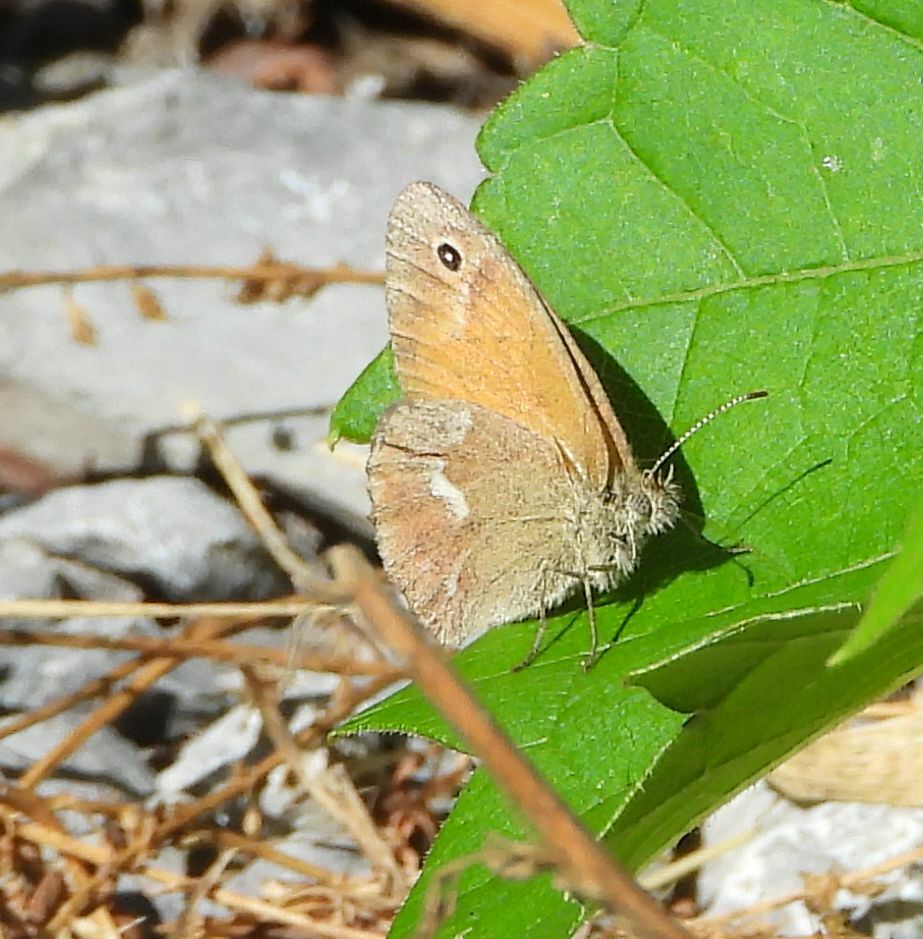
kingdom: Animalia
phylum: Arthropoda
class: Insecta
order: Lepidoptera
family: Nymphalidae
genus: Coenonympha
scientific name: Coenonympha california
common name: Common ringlet
